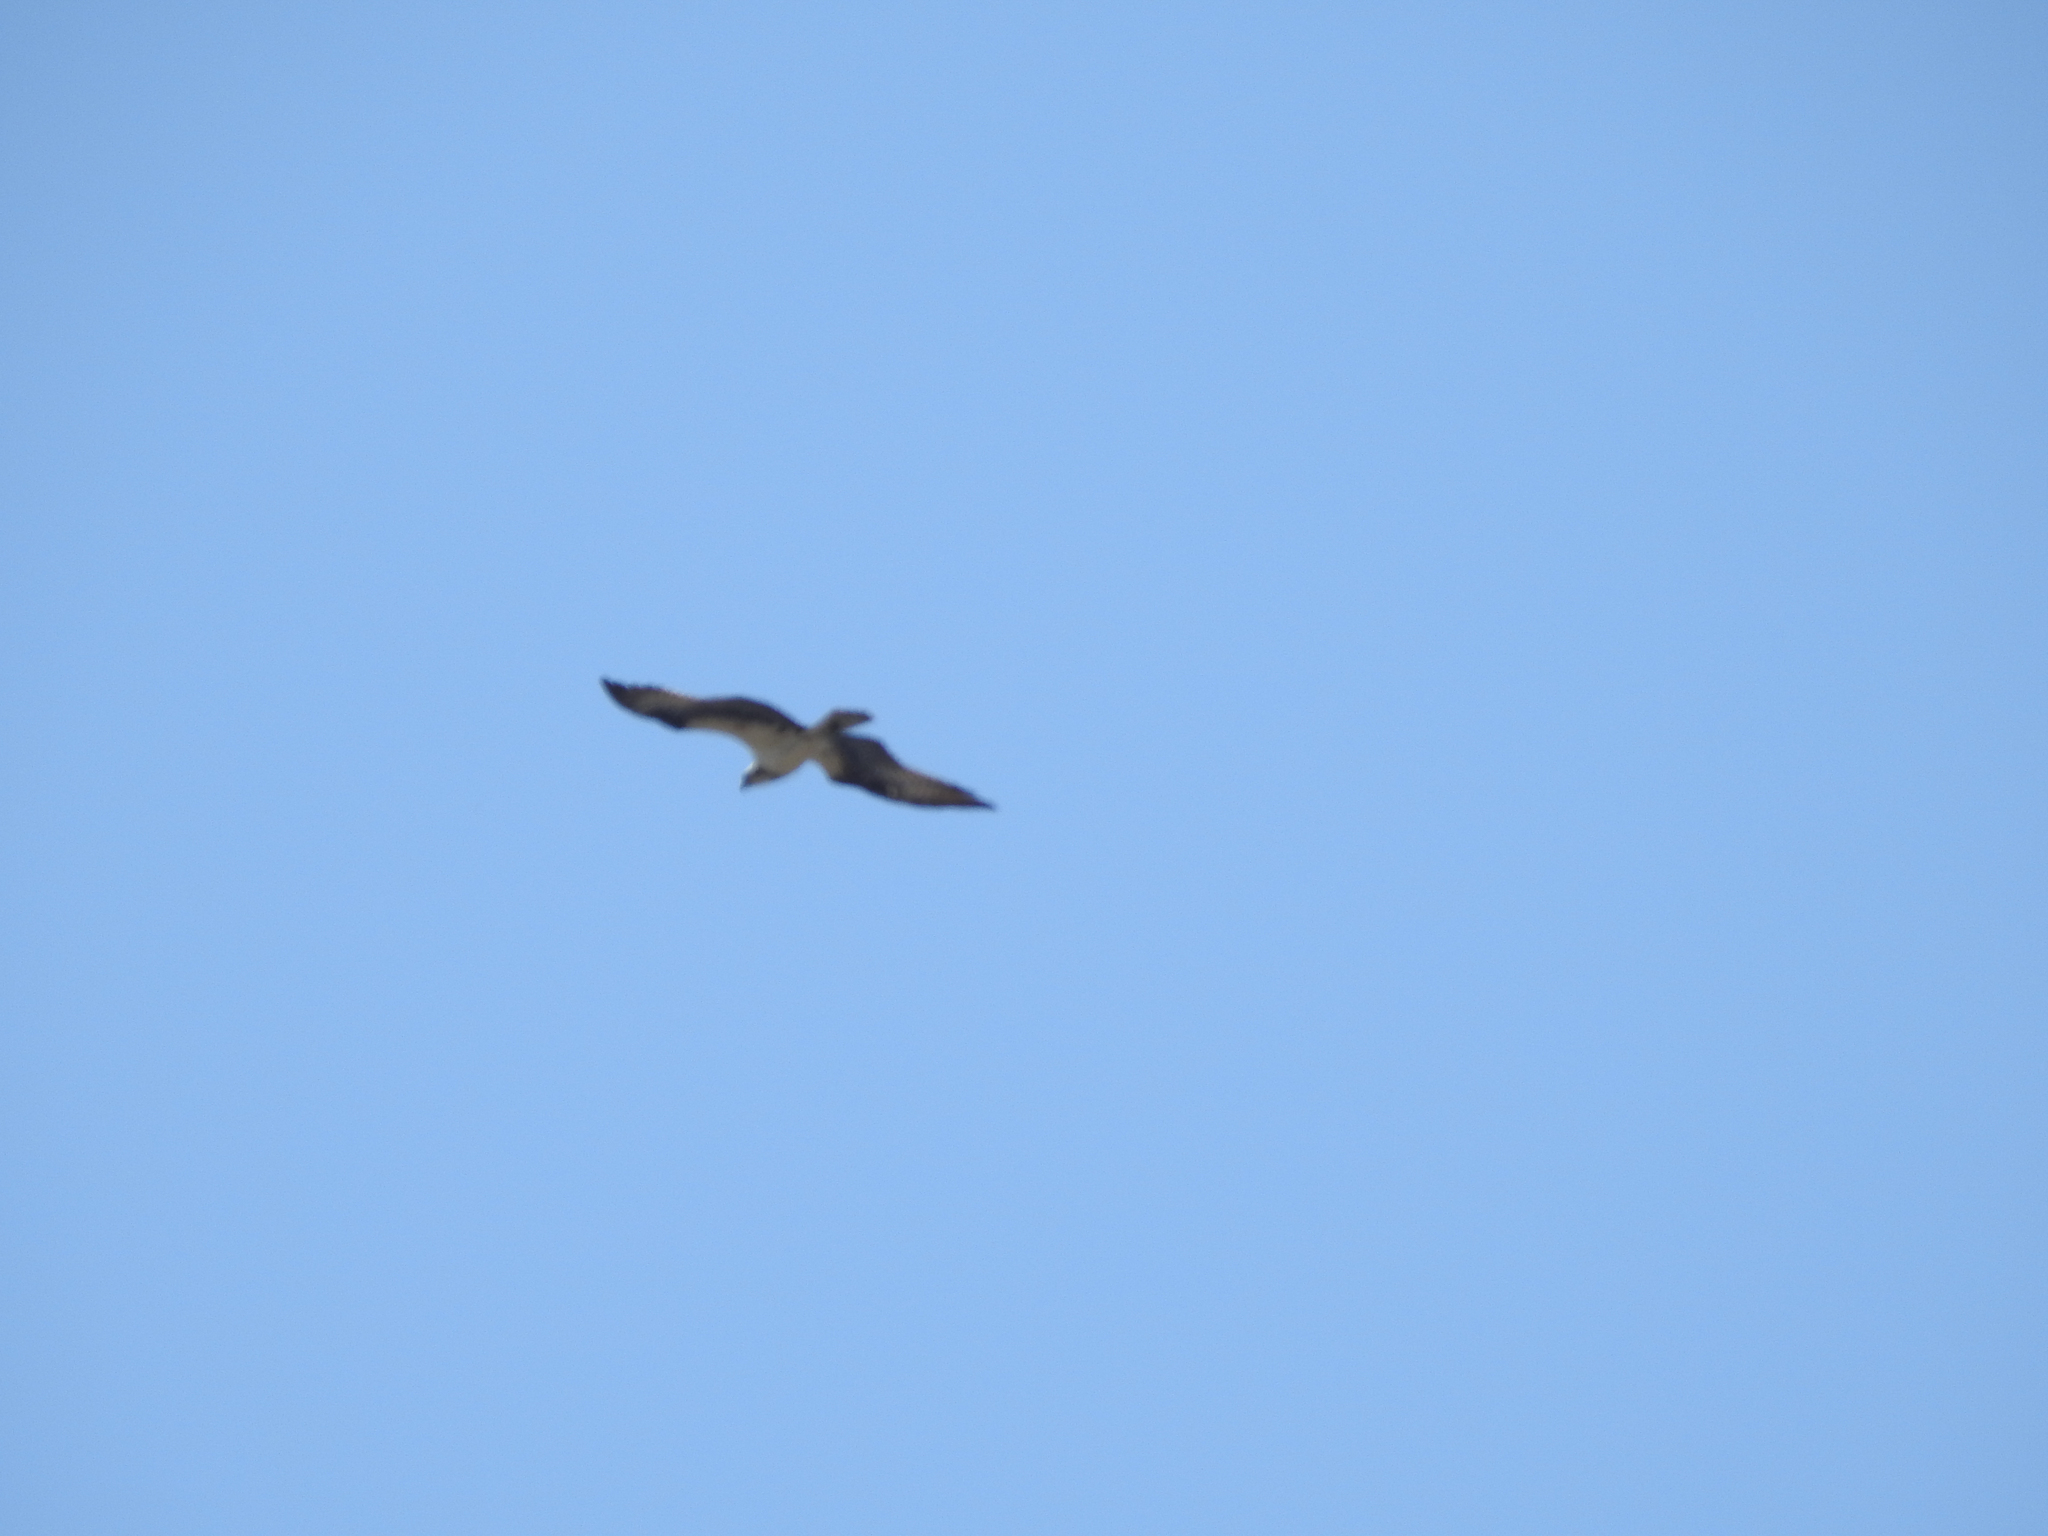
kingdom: Animalia
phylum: Chordata
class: Aves
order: Accipitriformes
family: Pandionidae
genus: Pandion
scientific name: Pandion haliaetus
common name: Osprey
